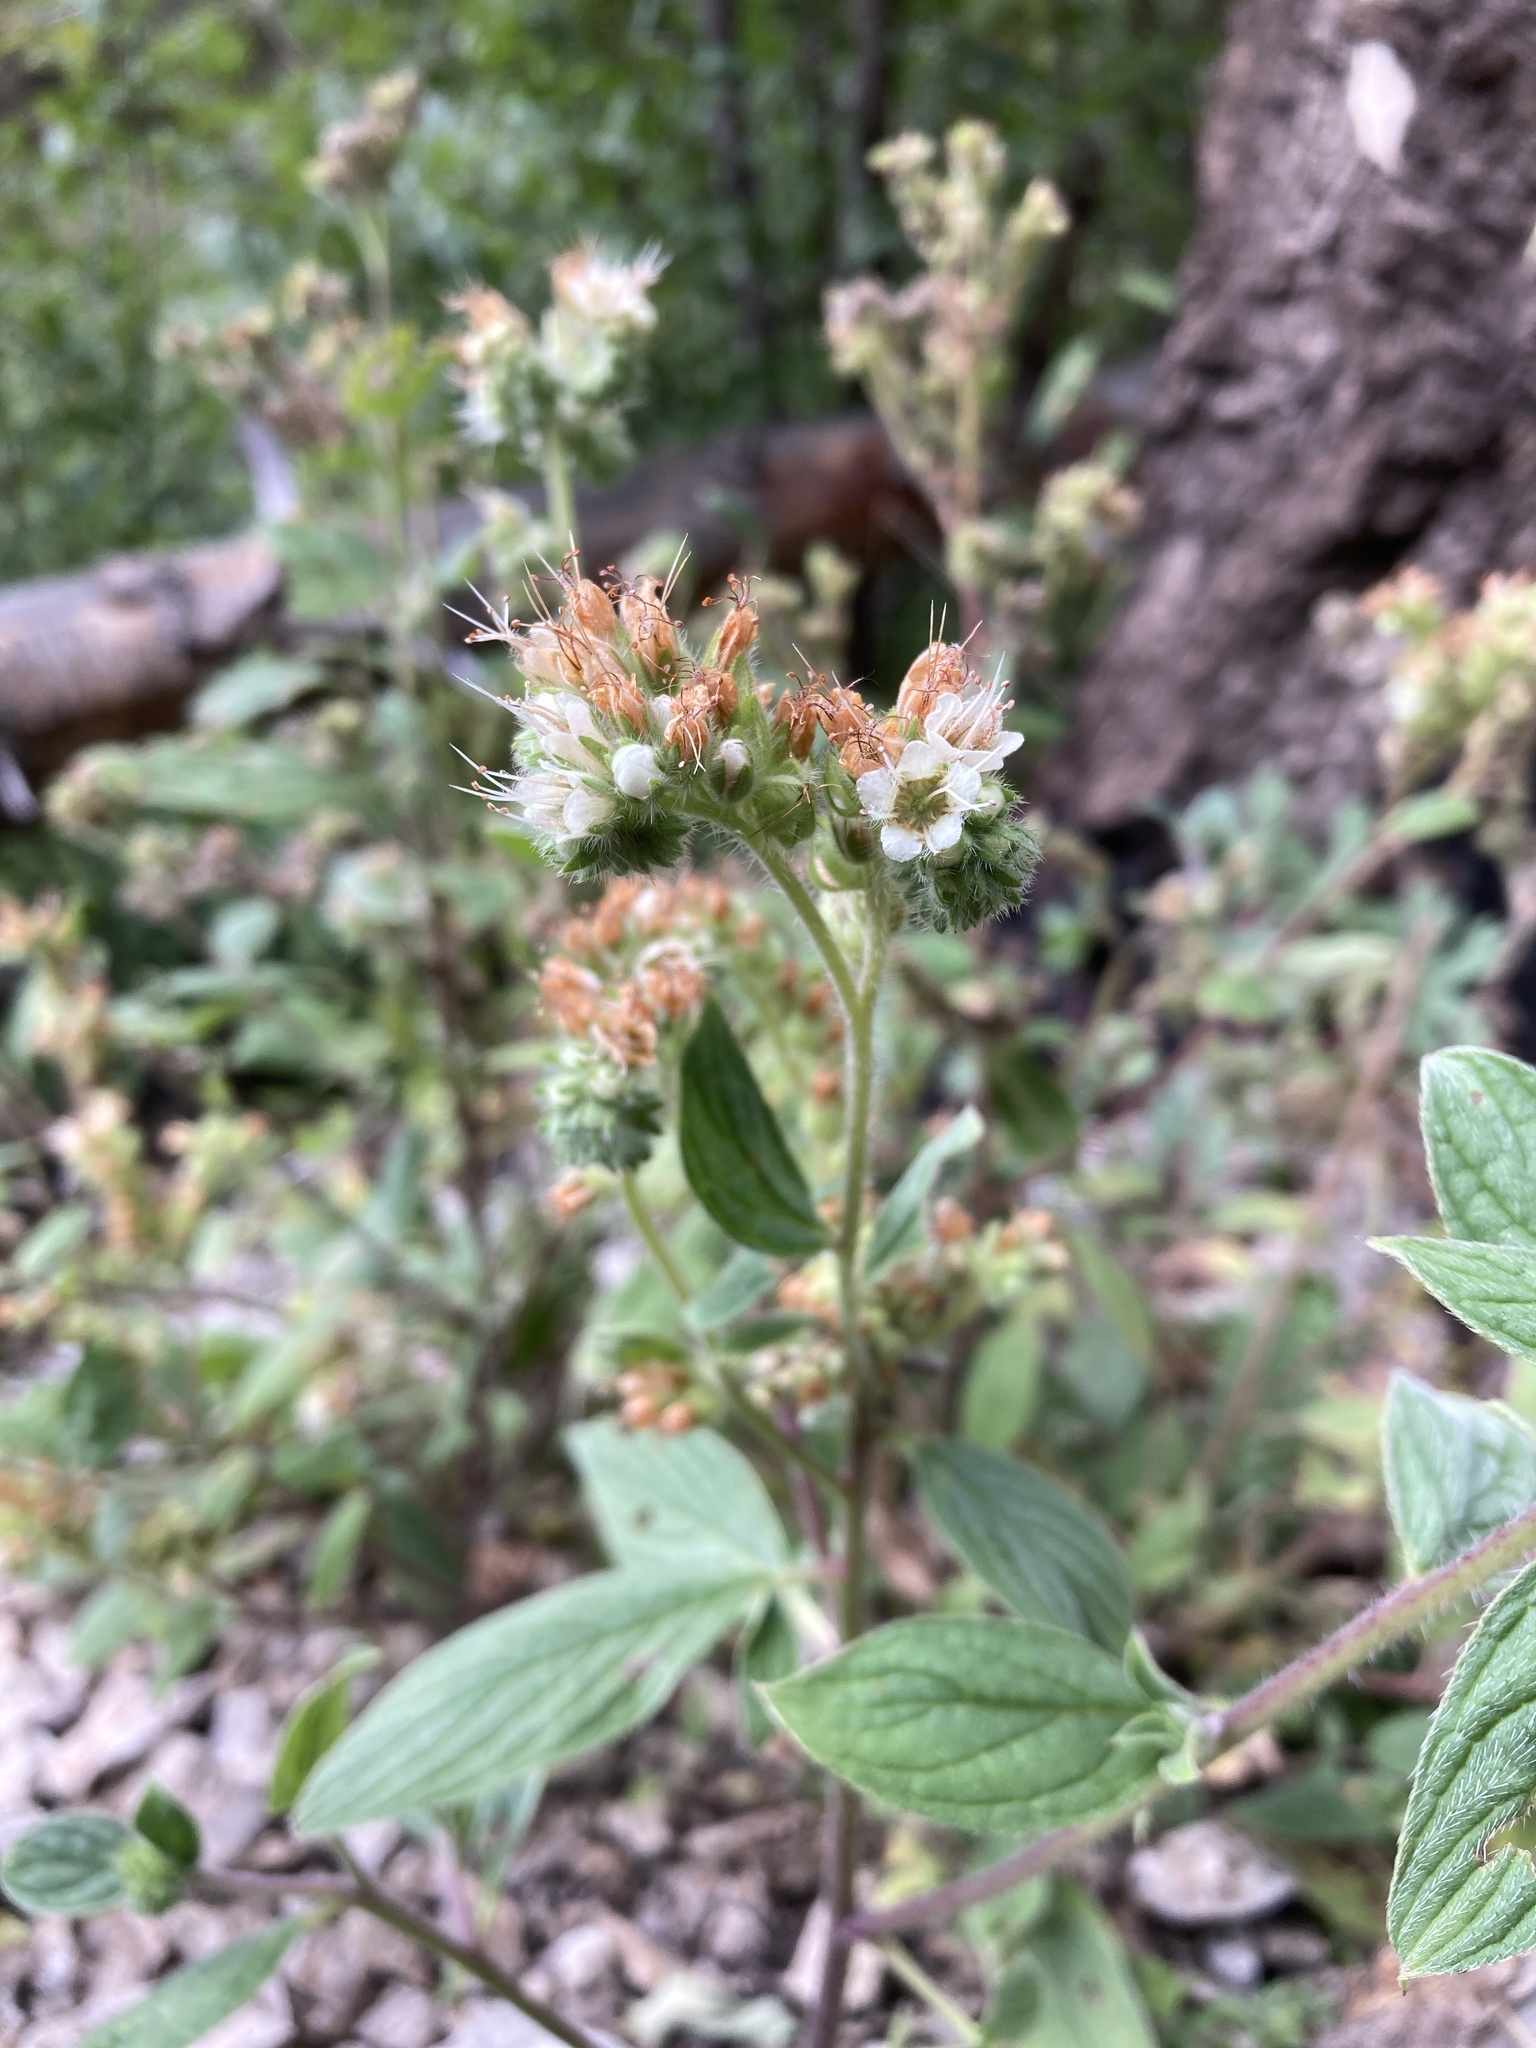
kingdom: Plantae
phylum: Tracheophyta
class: Magnoliopsida
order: Boraginales
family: Hydrophyllaceae
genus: Phacelia
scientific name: Phacelia heterophylla
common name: Variable-leaved phacelia
